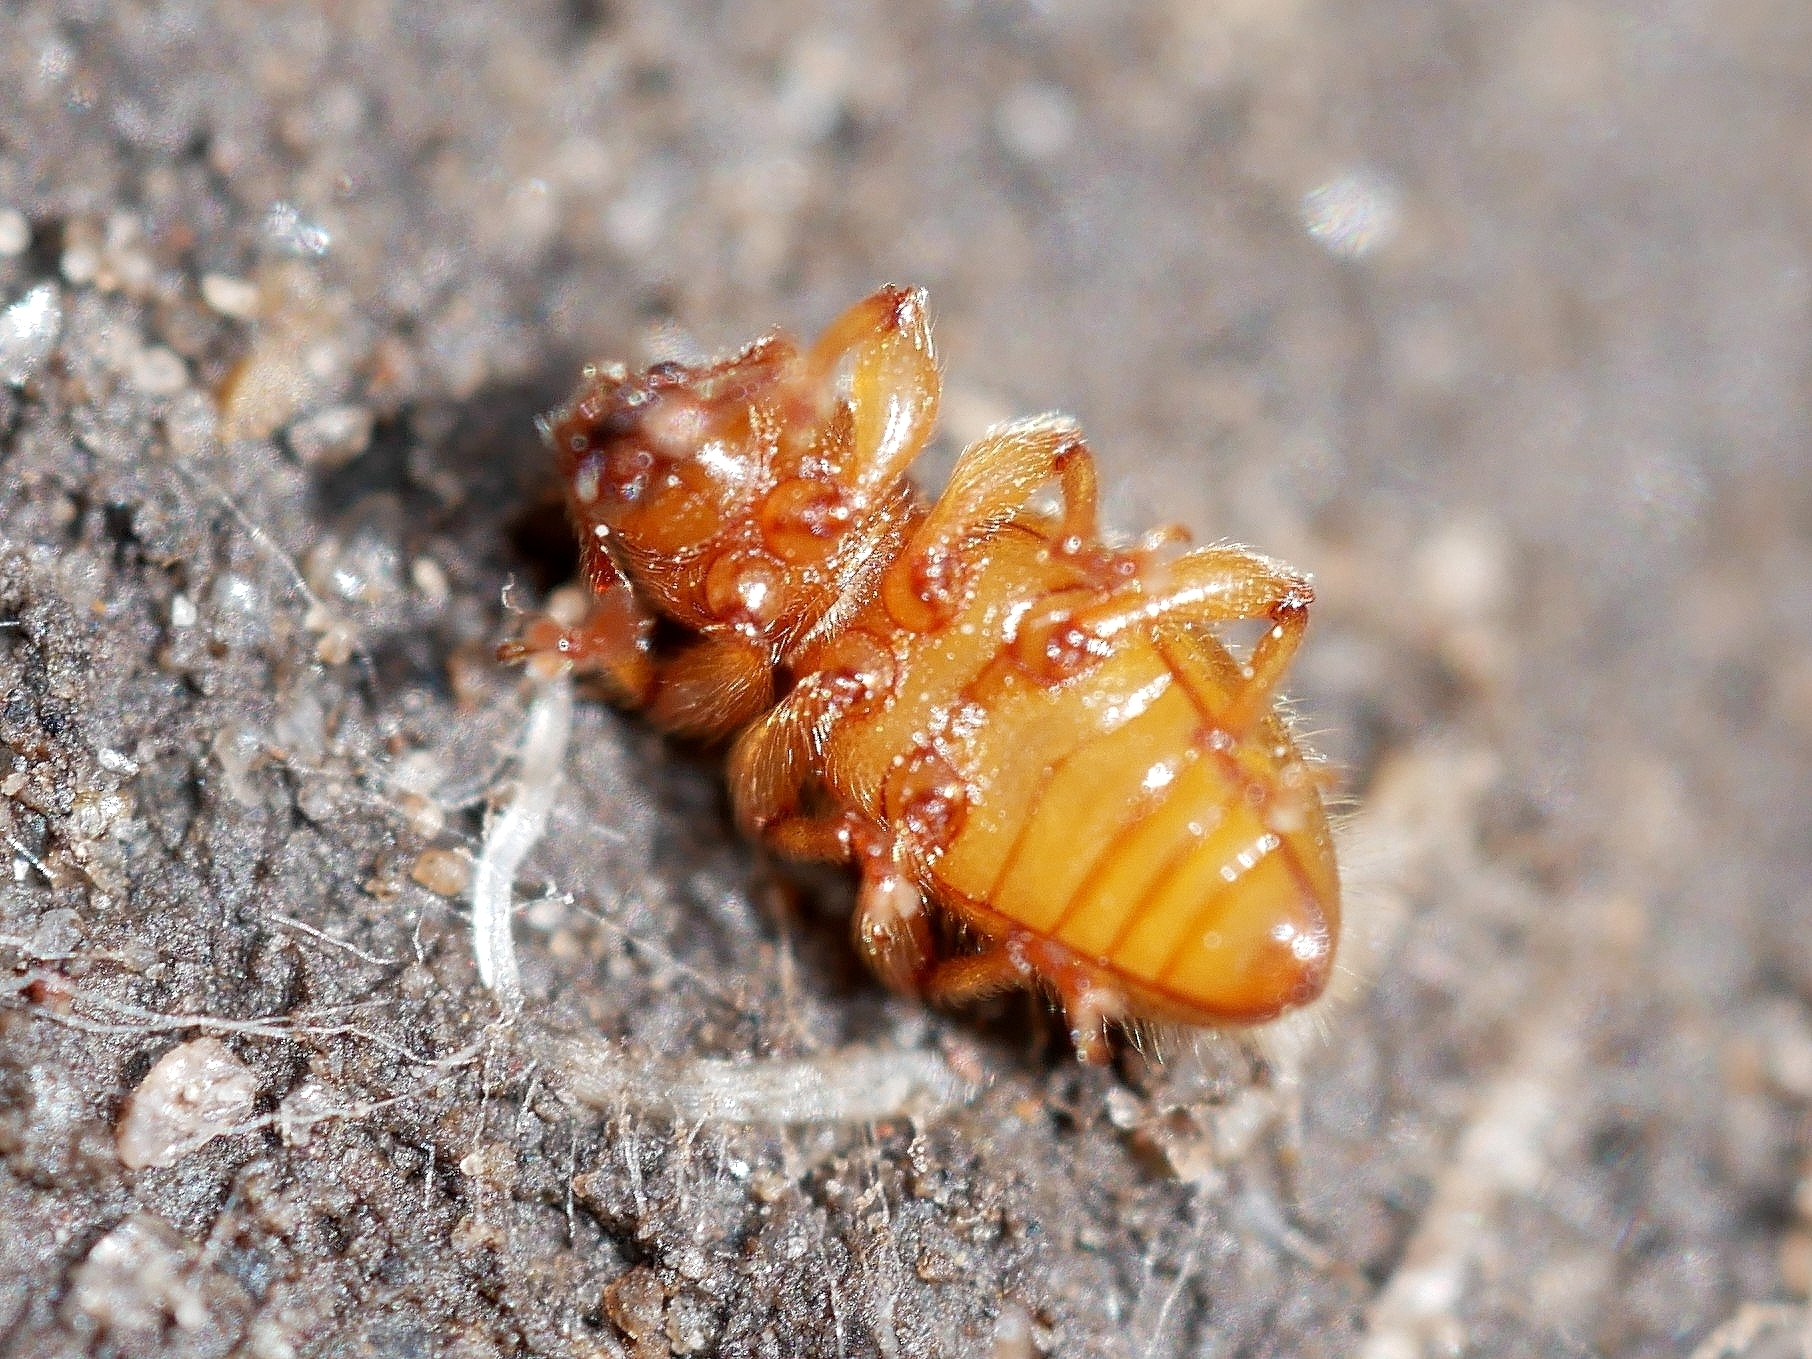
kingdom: Animalia
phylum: Arthropoda
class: Insecta
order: Coleoptera
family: Curculionidae
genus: Exomias
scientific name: Exomias pellucidus
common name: Hairy spider weevil
